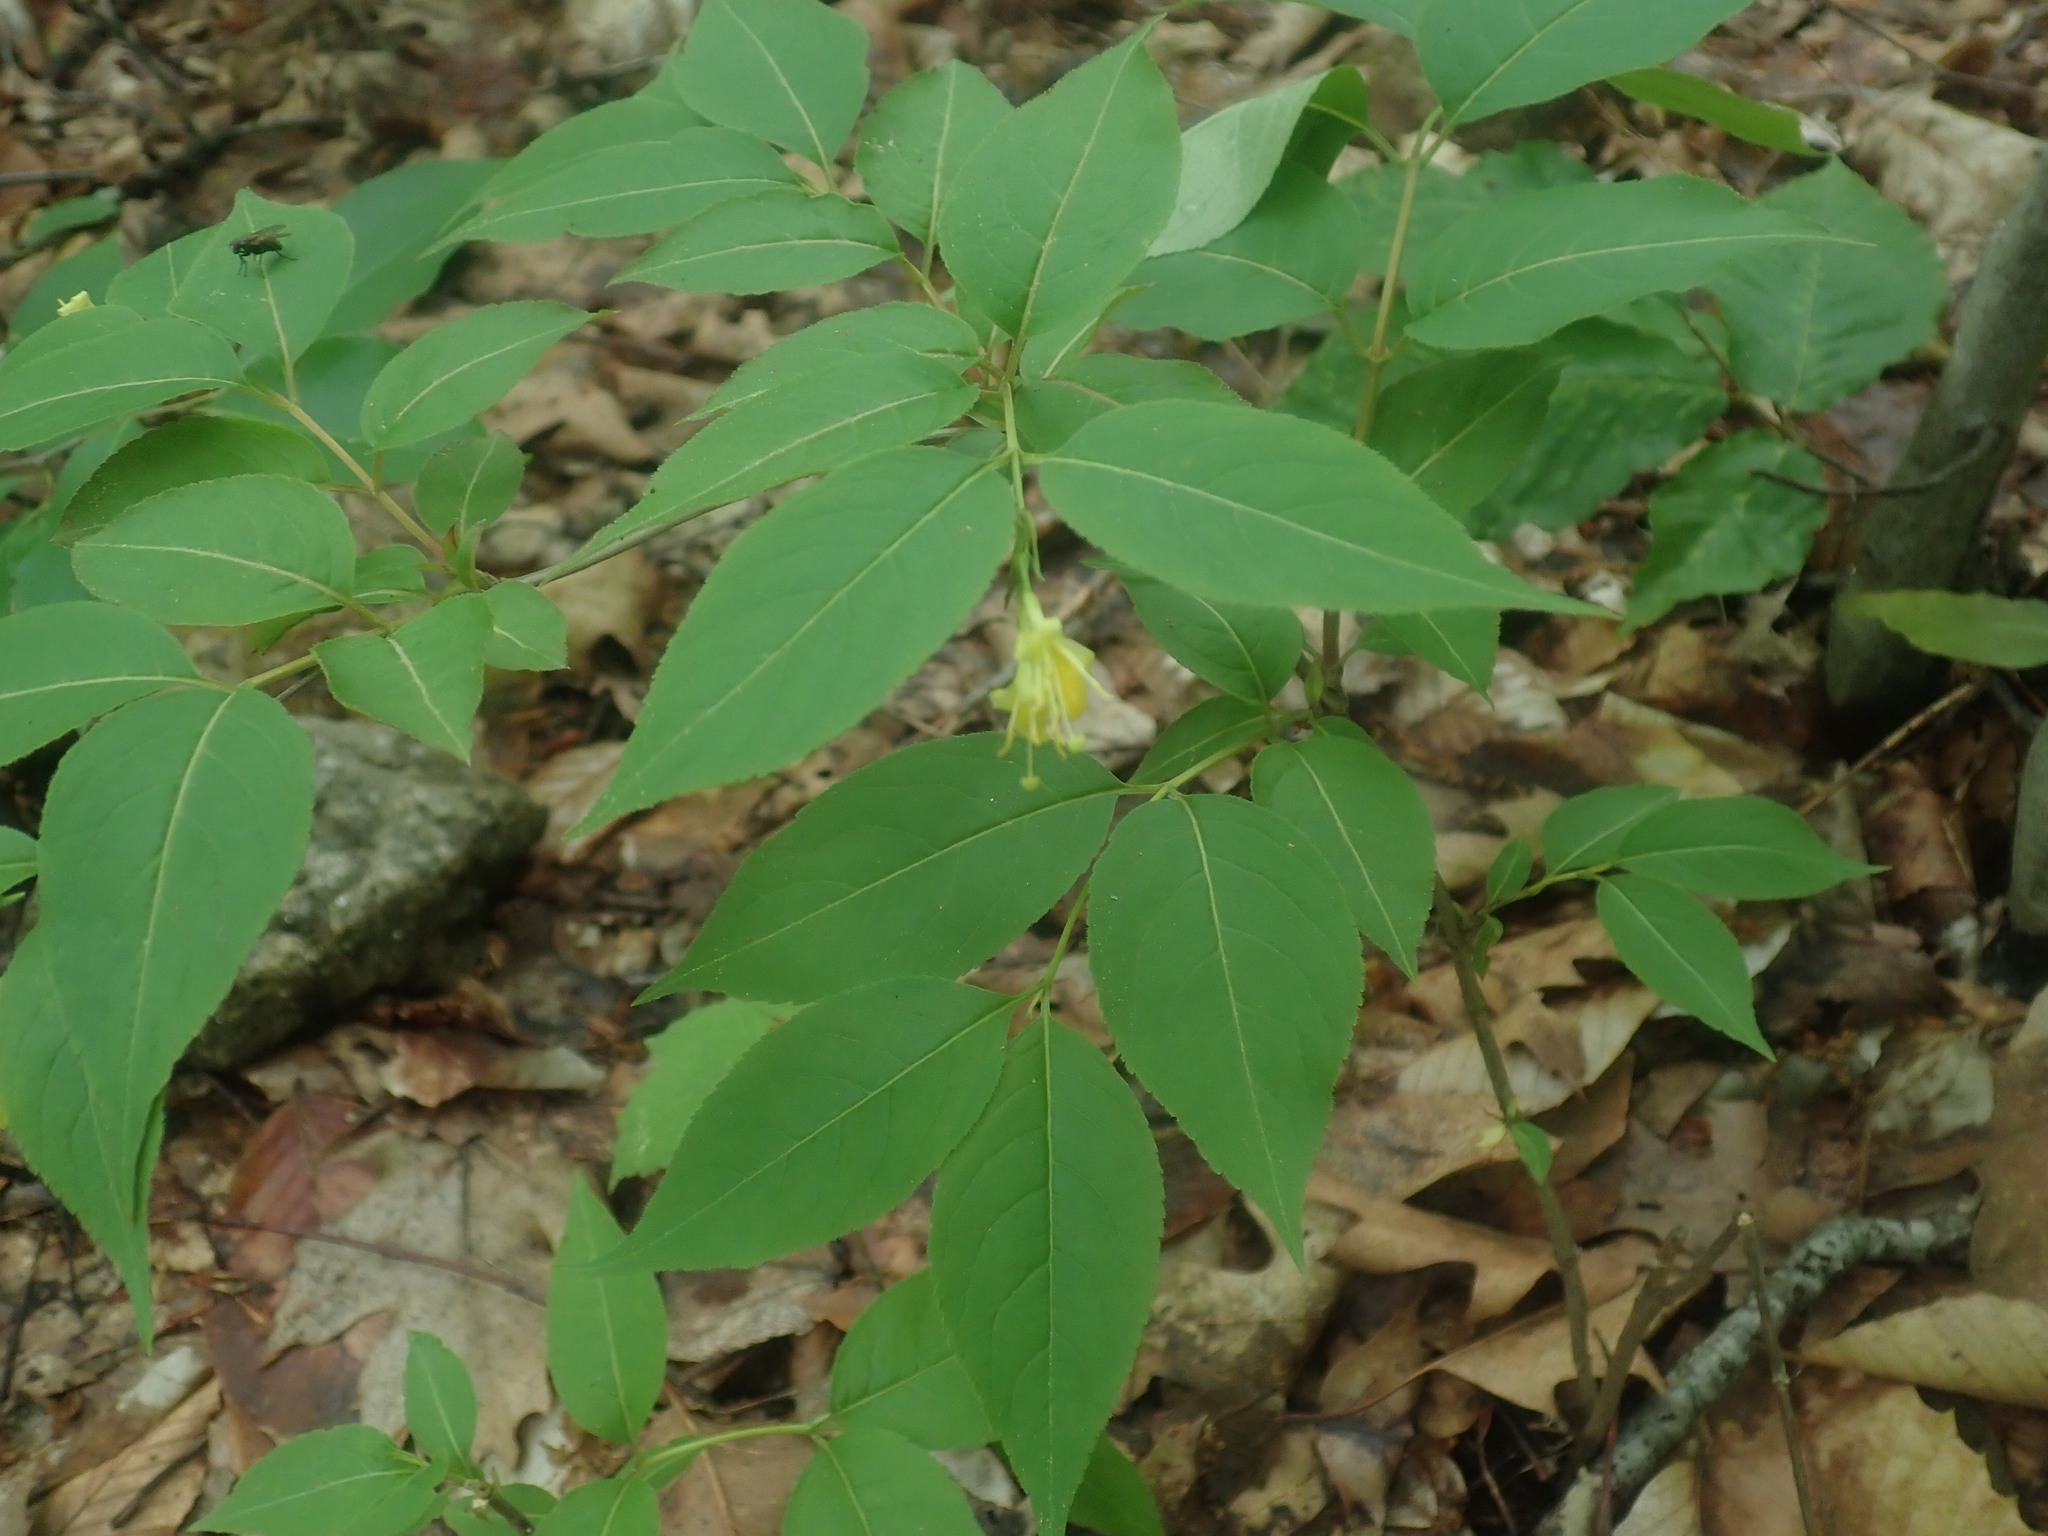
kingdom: Plantae
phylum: Tracheophyta
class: Magnoliopsida
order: Dipsacales
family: Caprifoliaceae
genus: Diervilla
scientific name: Diervilla lonicera
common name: Bush-honeysuckle
